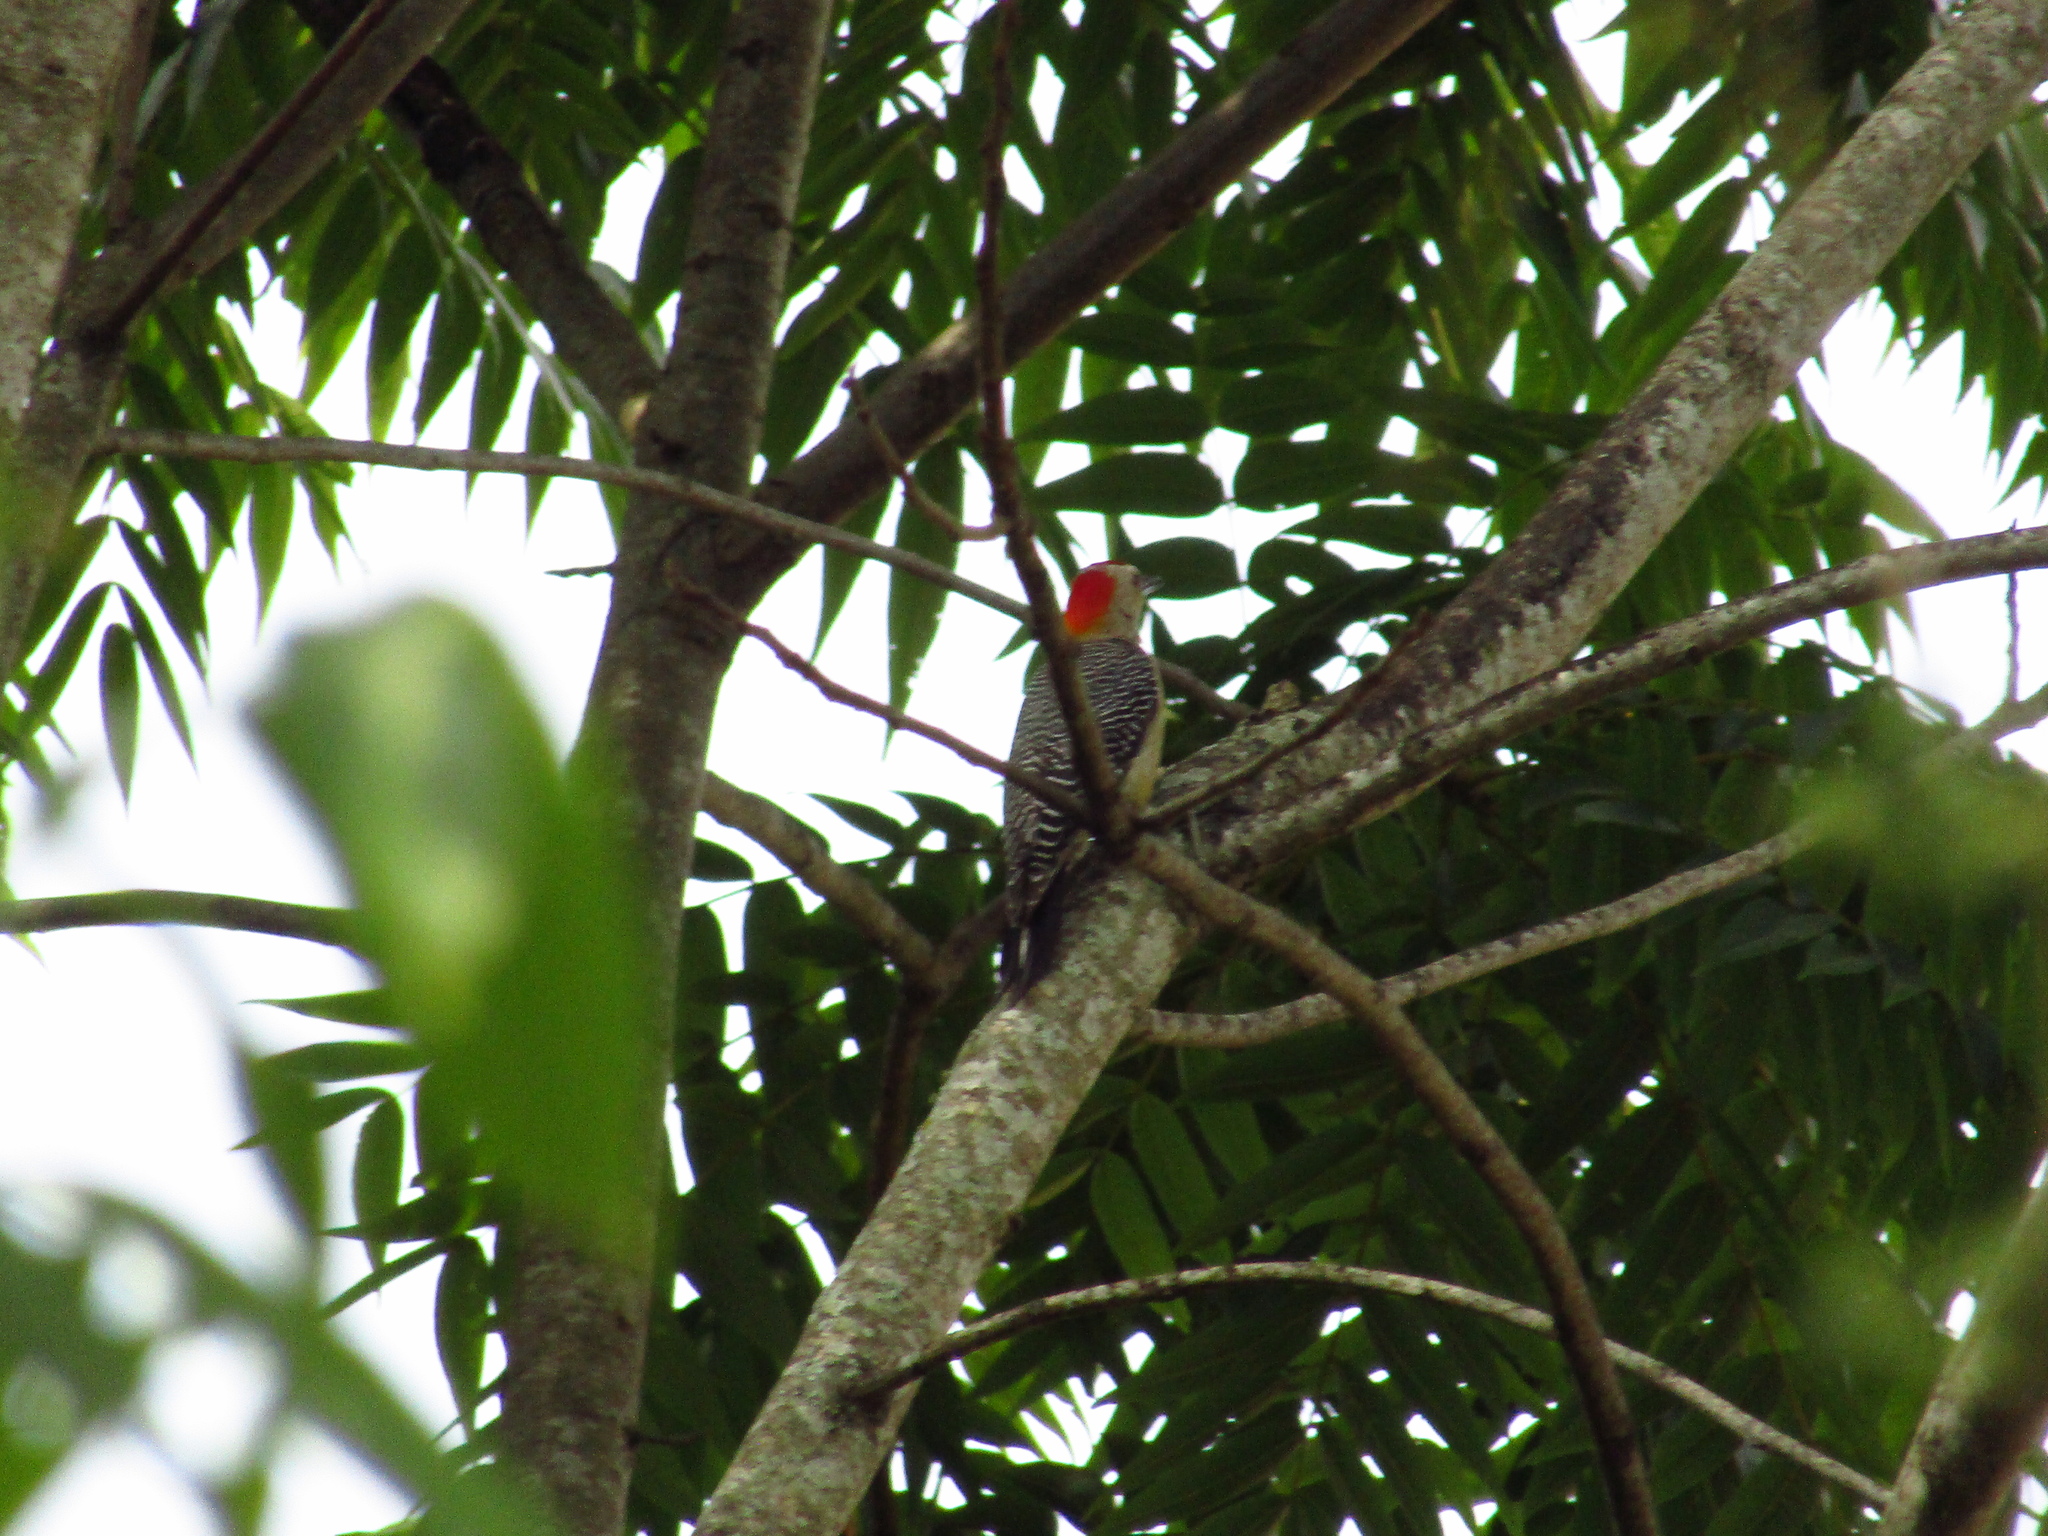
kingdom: Animalia
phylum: Chordata
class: Aves
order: Piciformes
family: Picidae
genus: Melanerpes
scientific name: Melanerpes aurifrons
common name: Golden-fronted woodpecker
